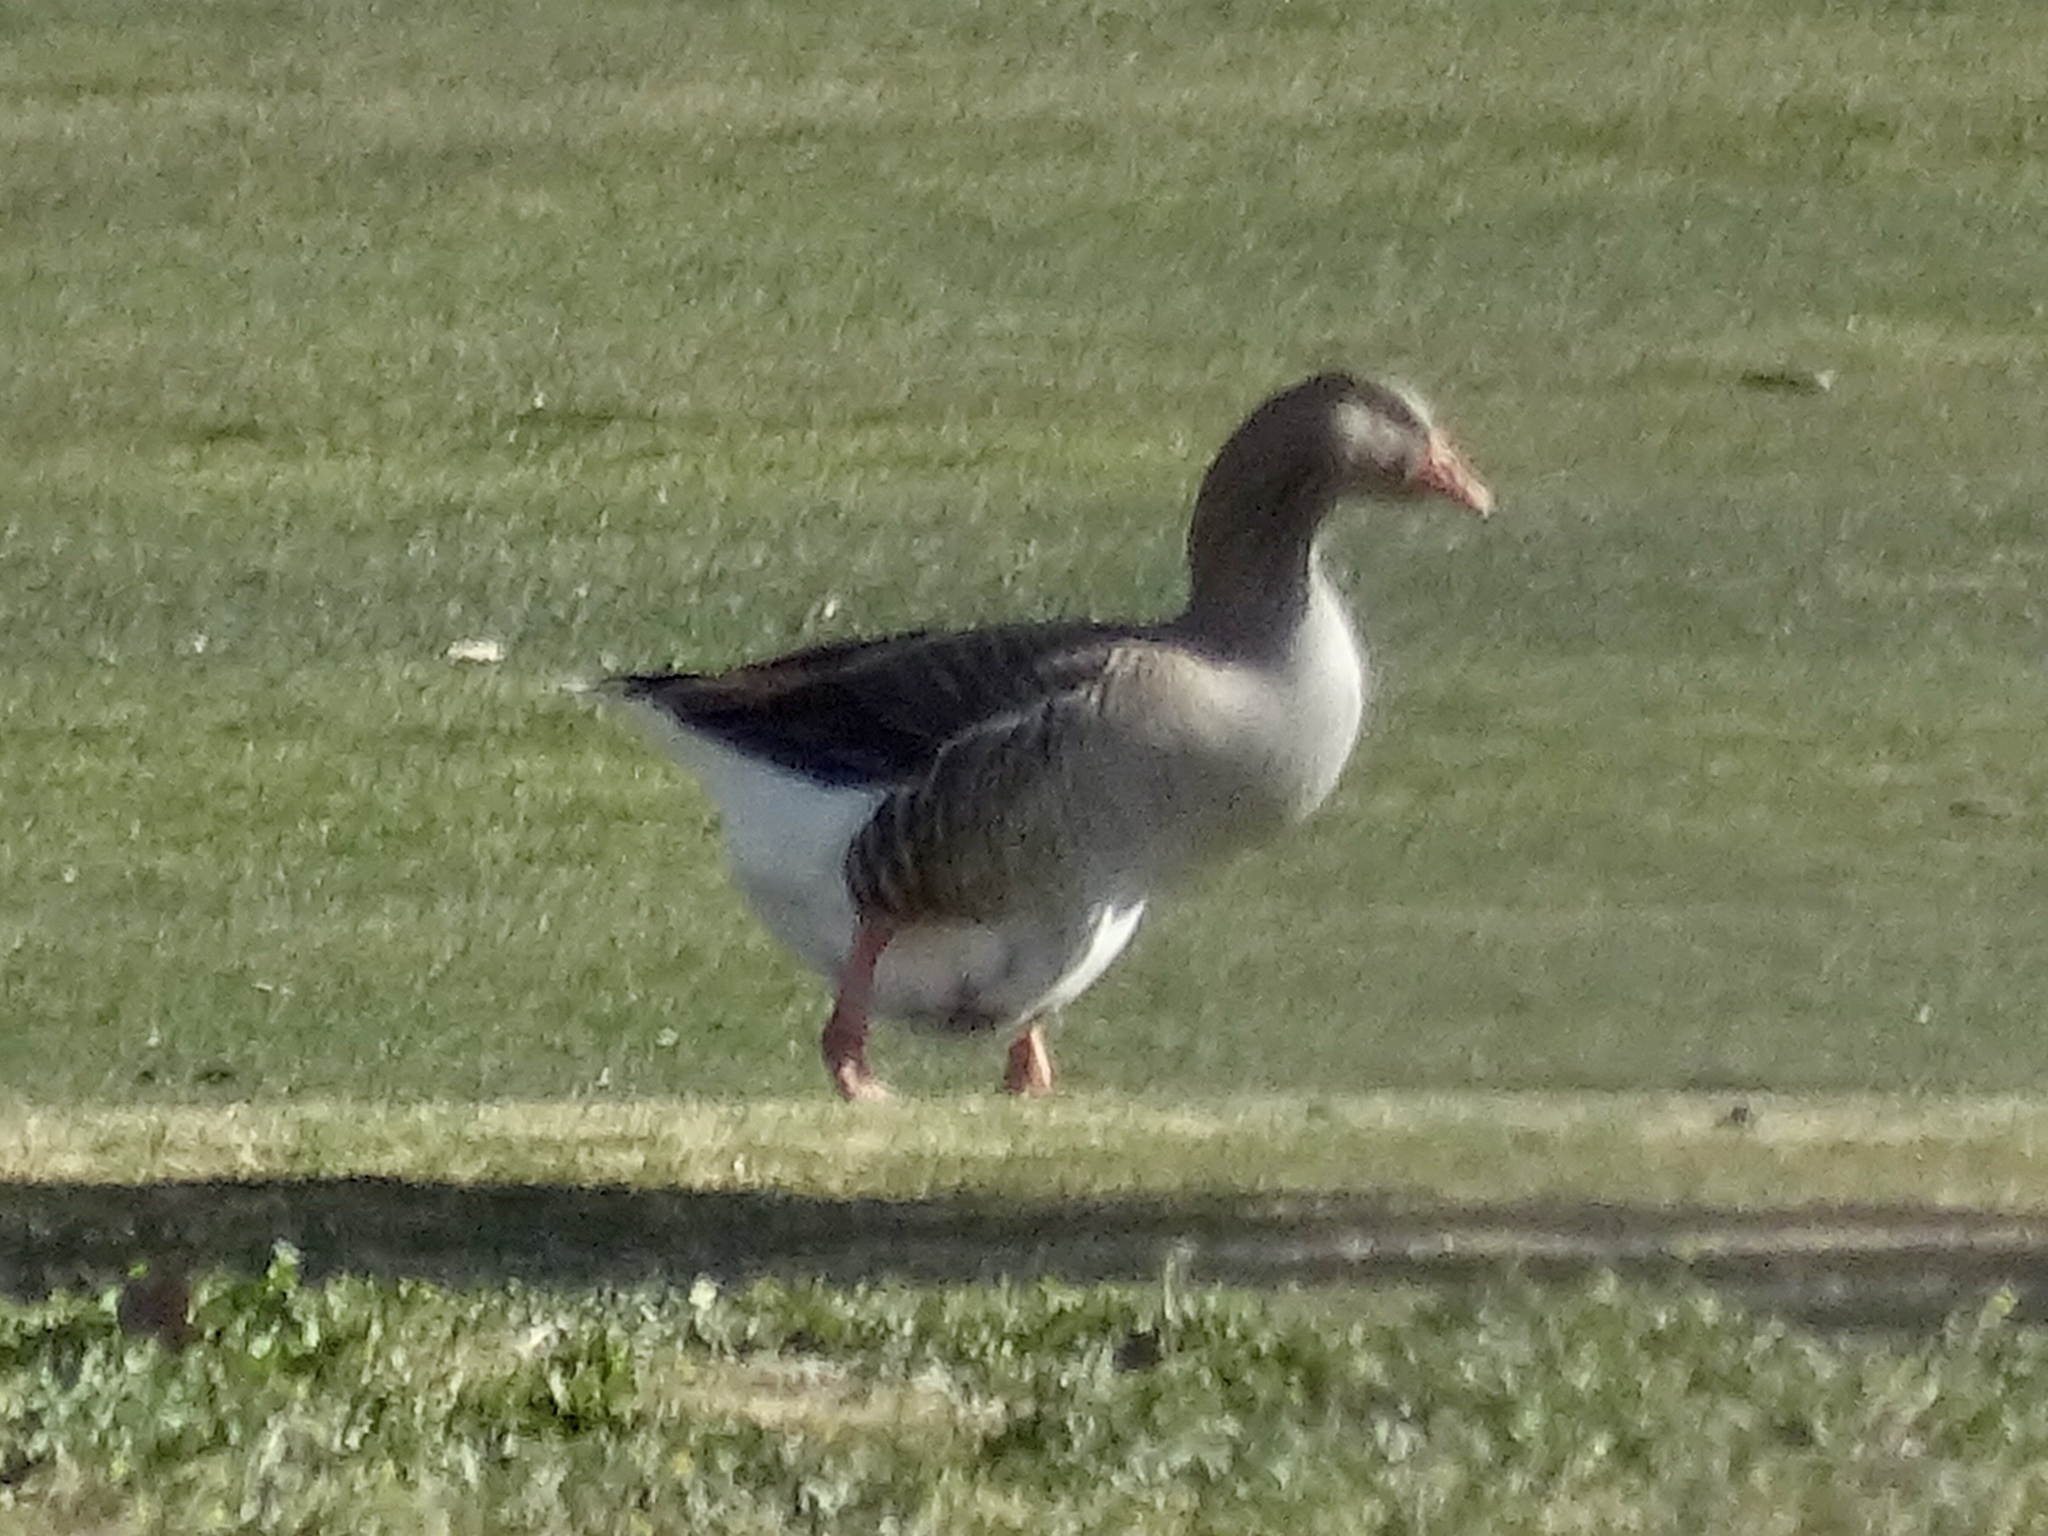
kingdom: Animalia
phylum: Chordata
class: Aves
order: Anseriformes
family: Anatidae
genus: Anser
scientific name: Anser
